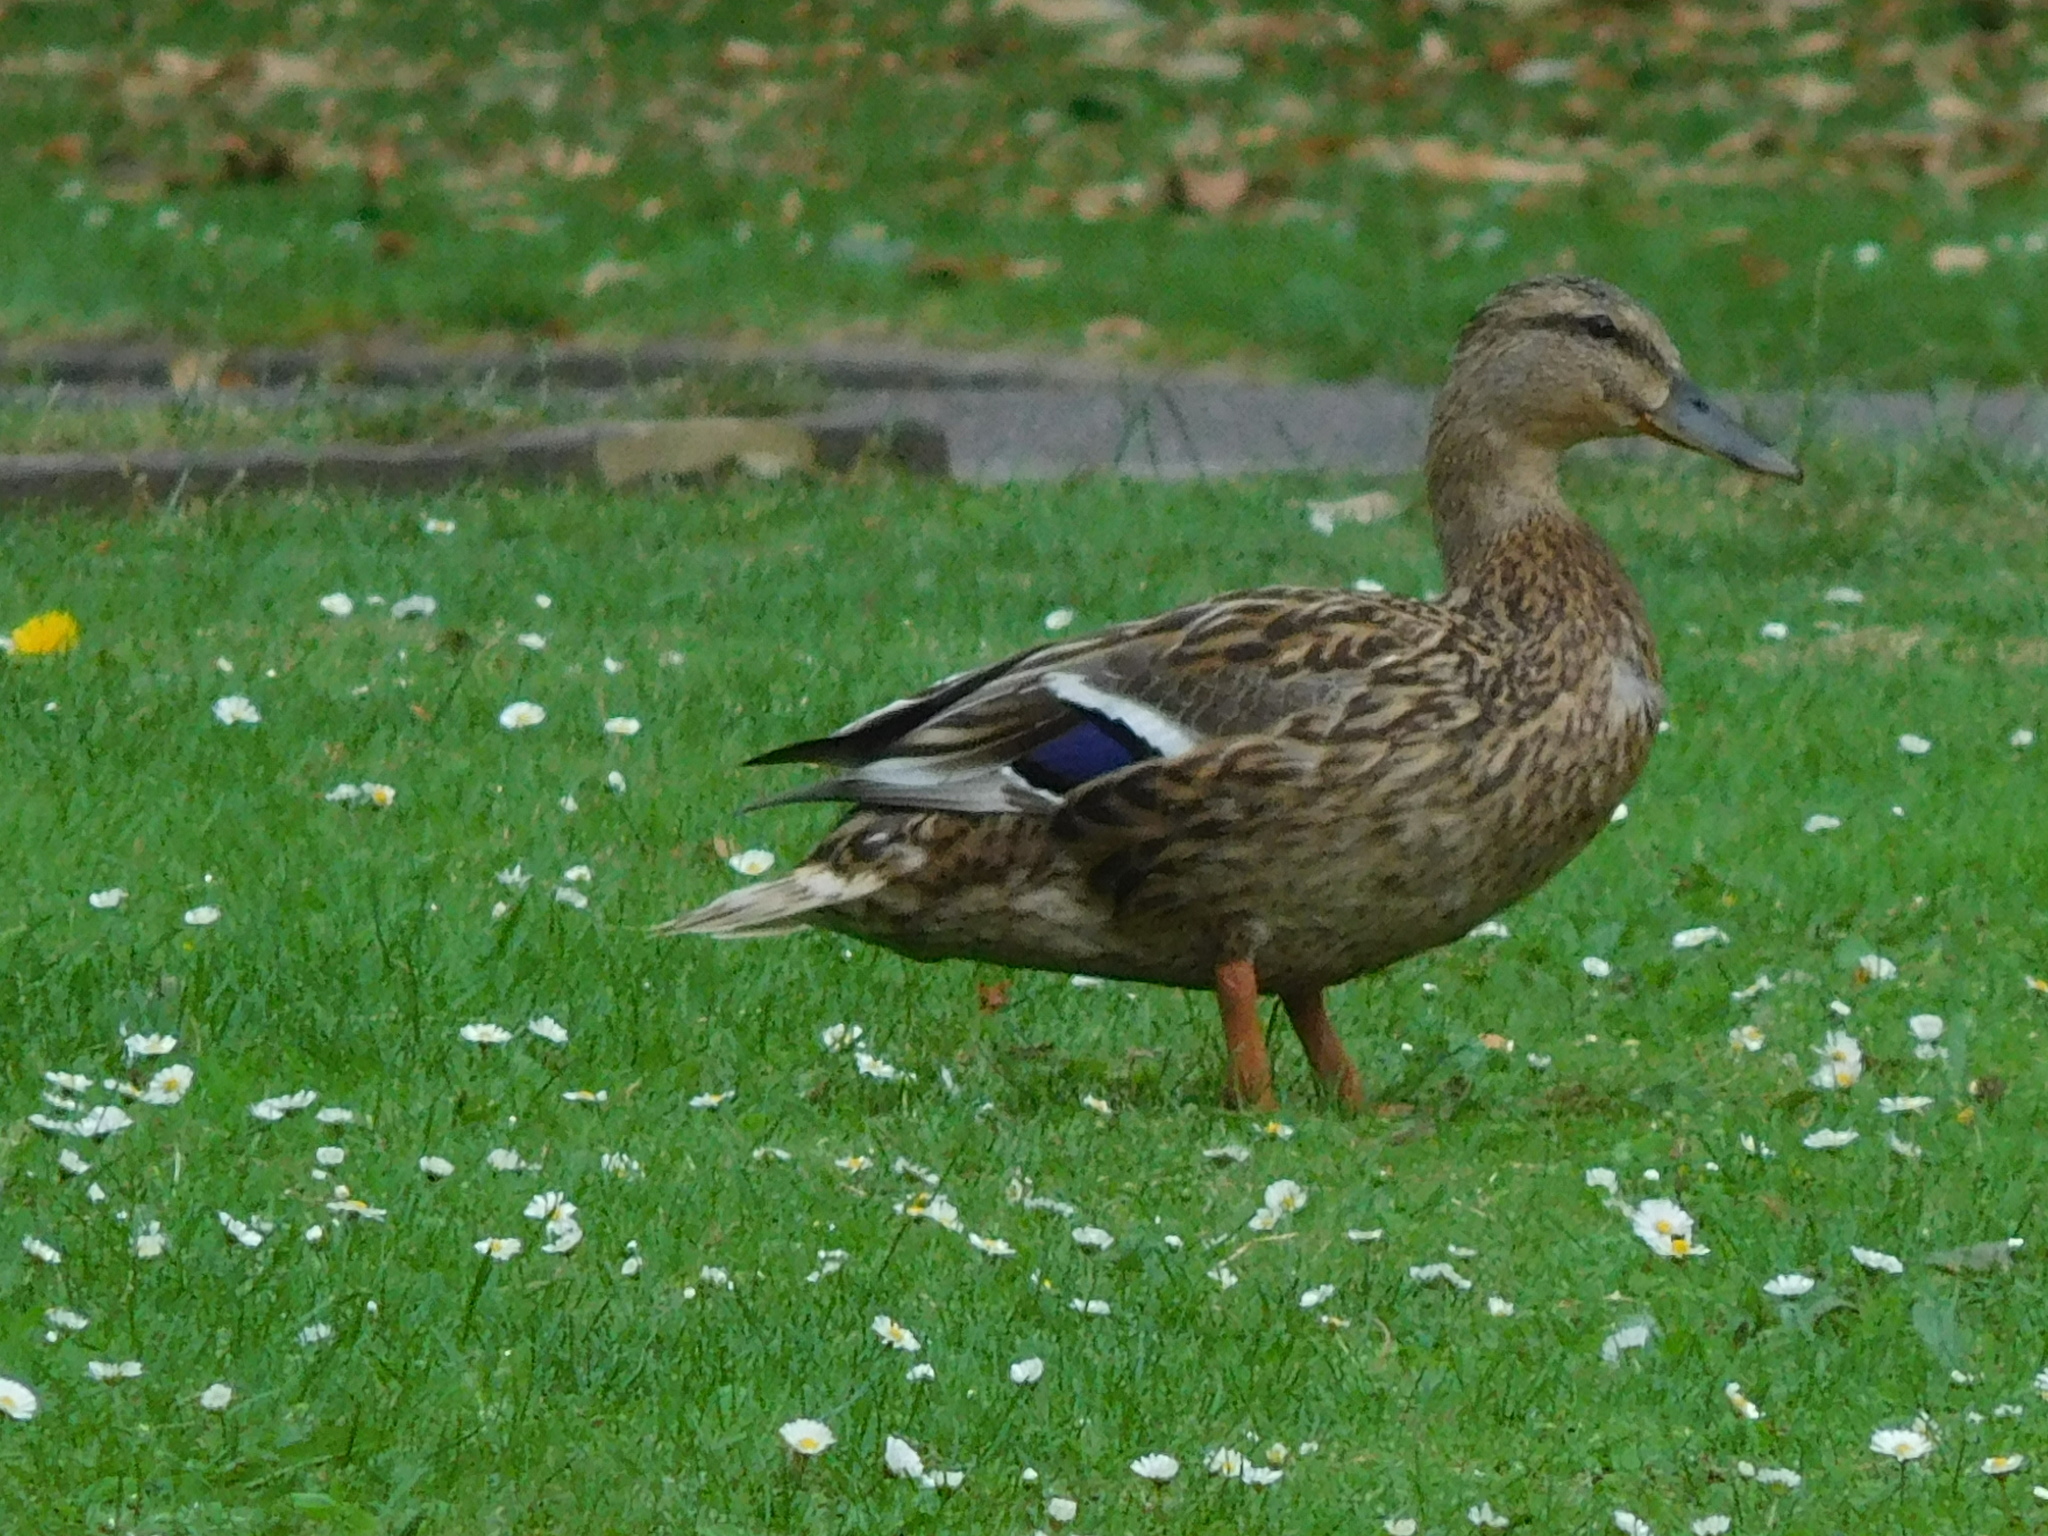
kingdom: Animalia
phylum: Chordata
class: Aves
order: Anseriformes
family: Anatidae
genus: Anas
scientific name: Anas platyrhynchos
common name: Mallard
